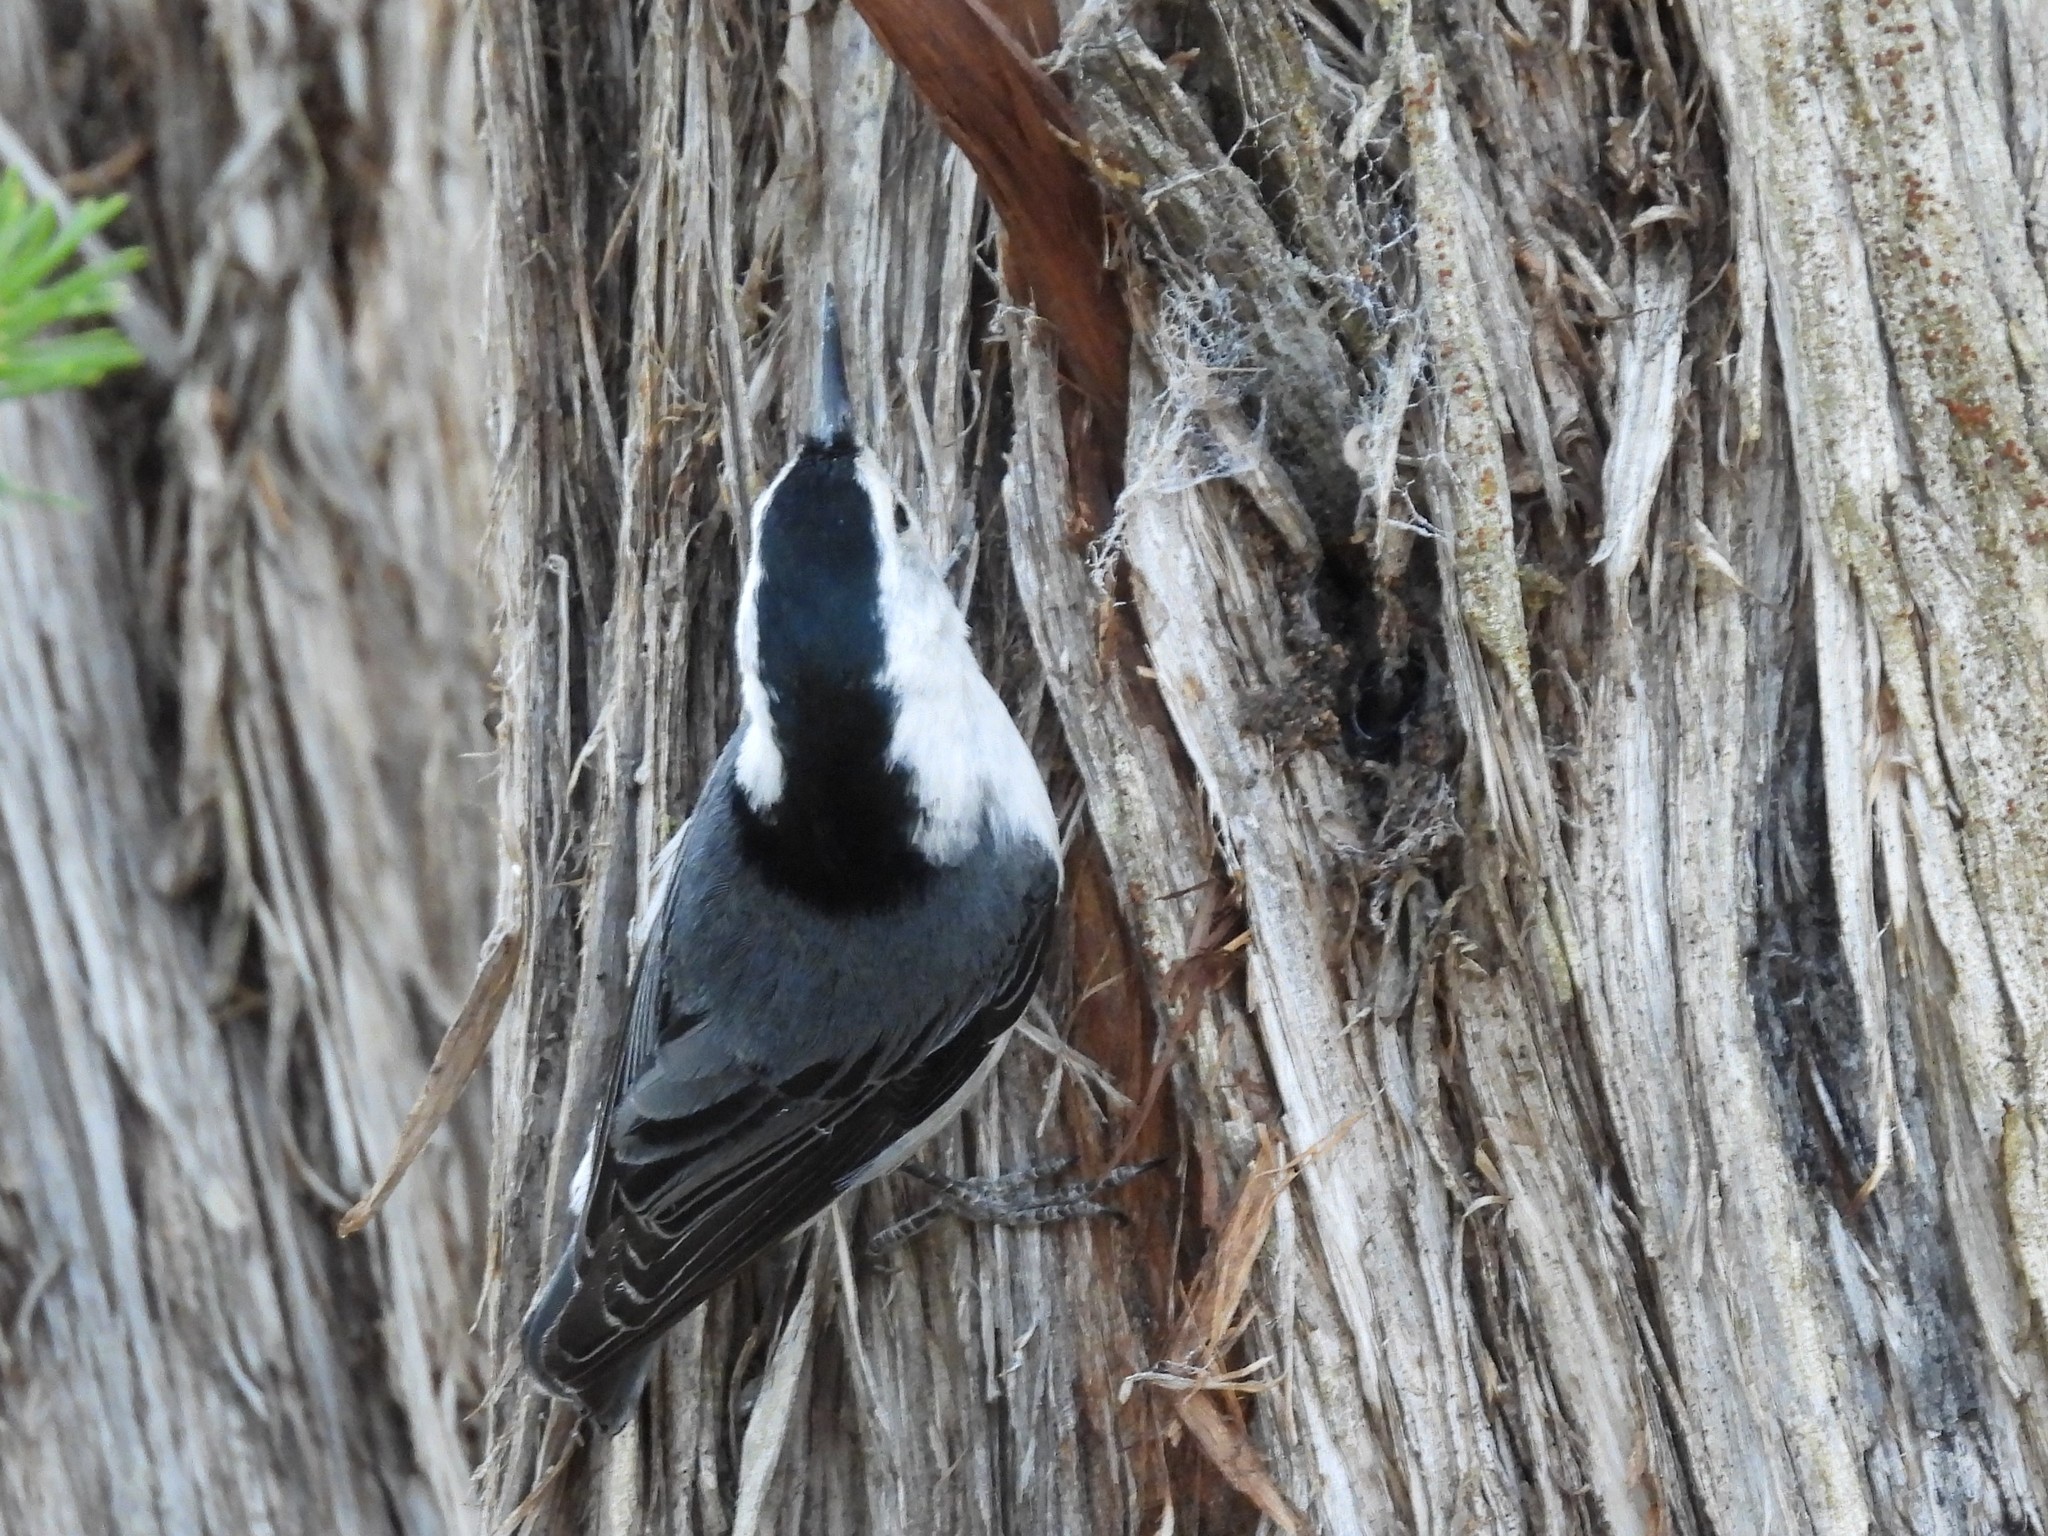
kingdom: Animalia
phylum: Chordata
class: Aves
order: Passeriformes
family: Sittidae
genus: Sitta
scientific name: Sitta carolinensis
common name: White-breasted nuthatch
